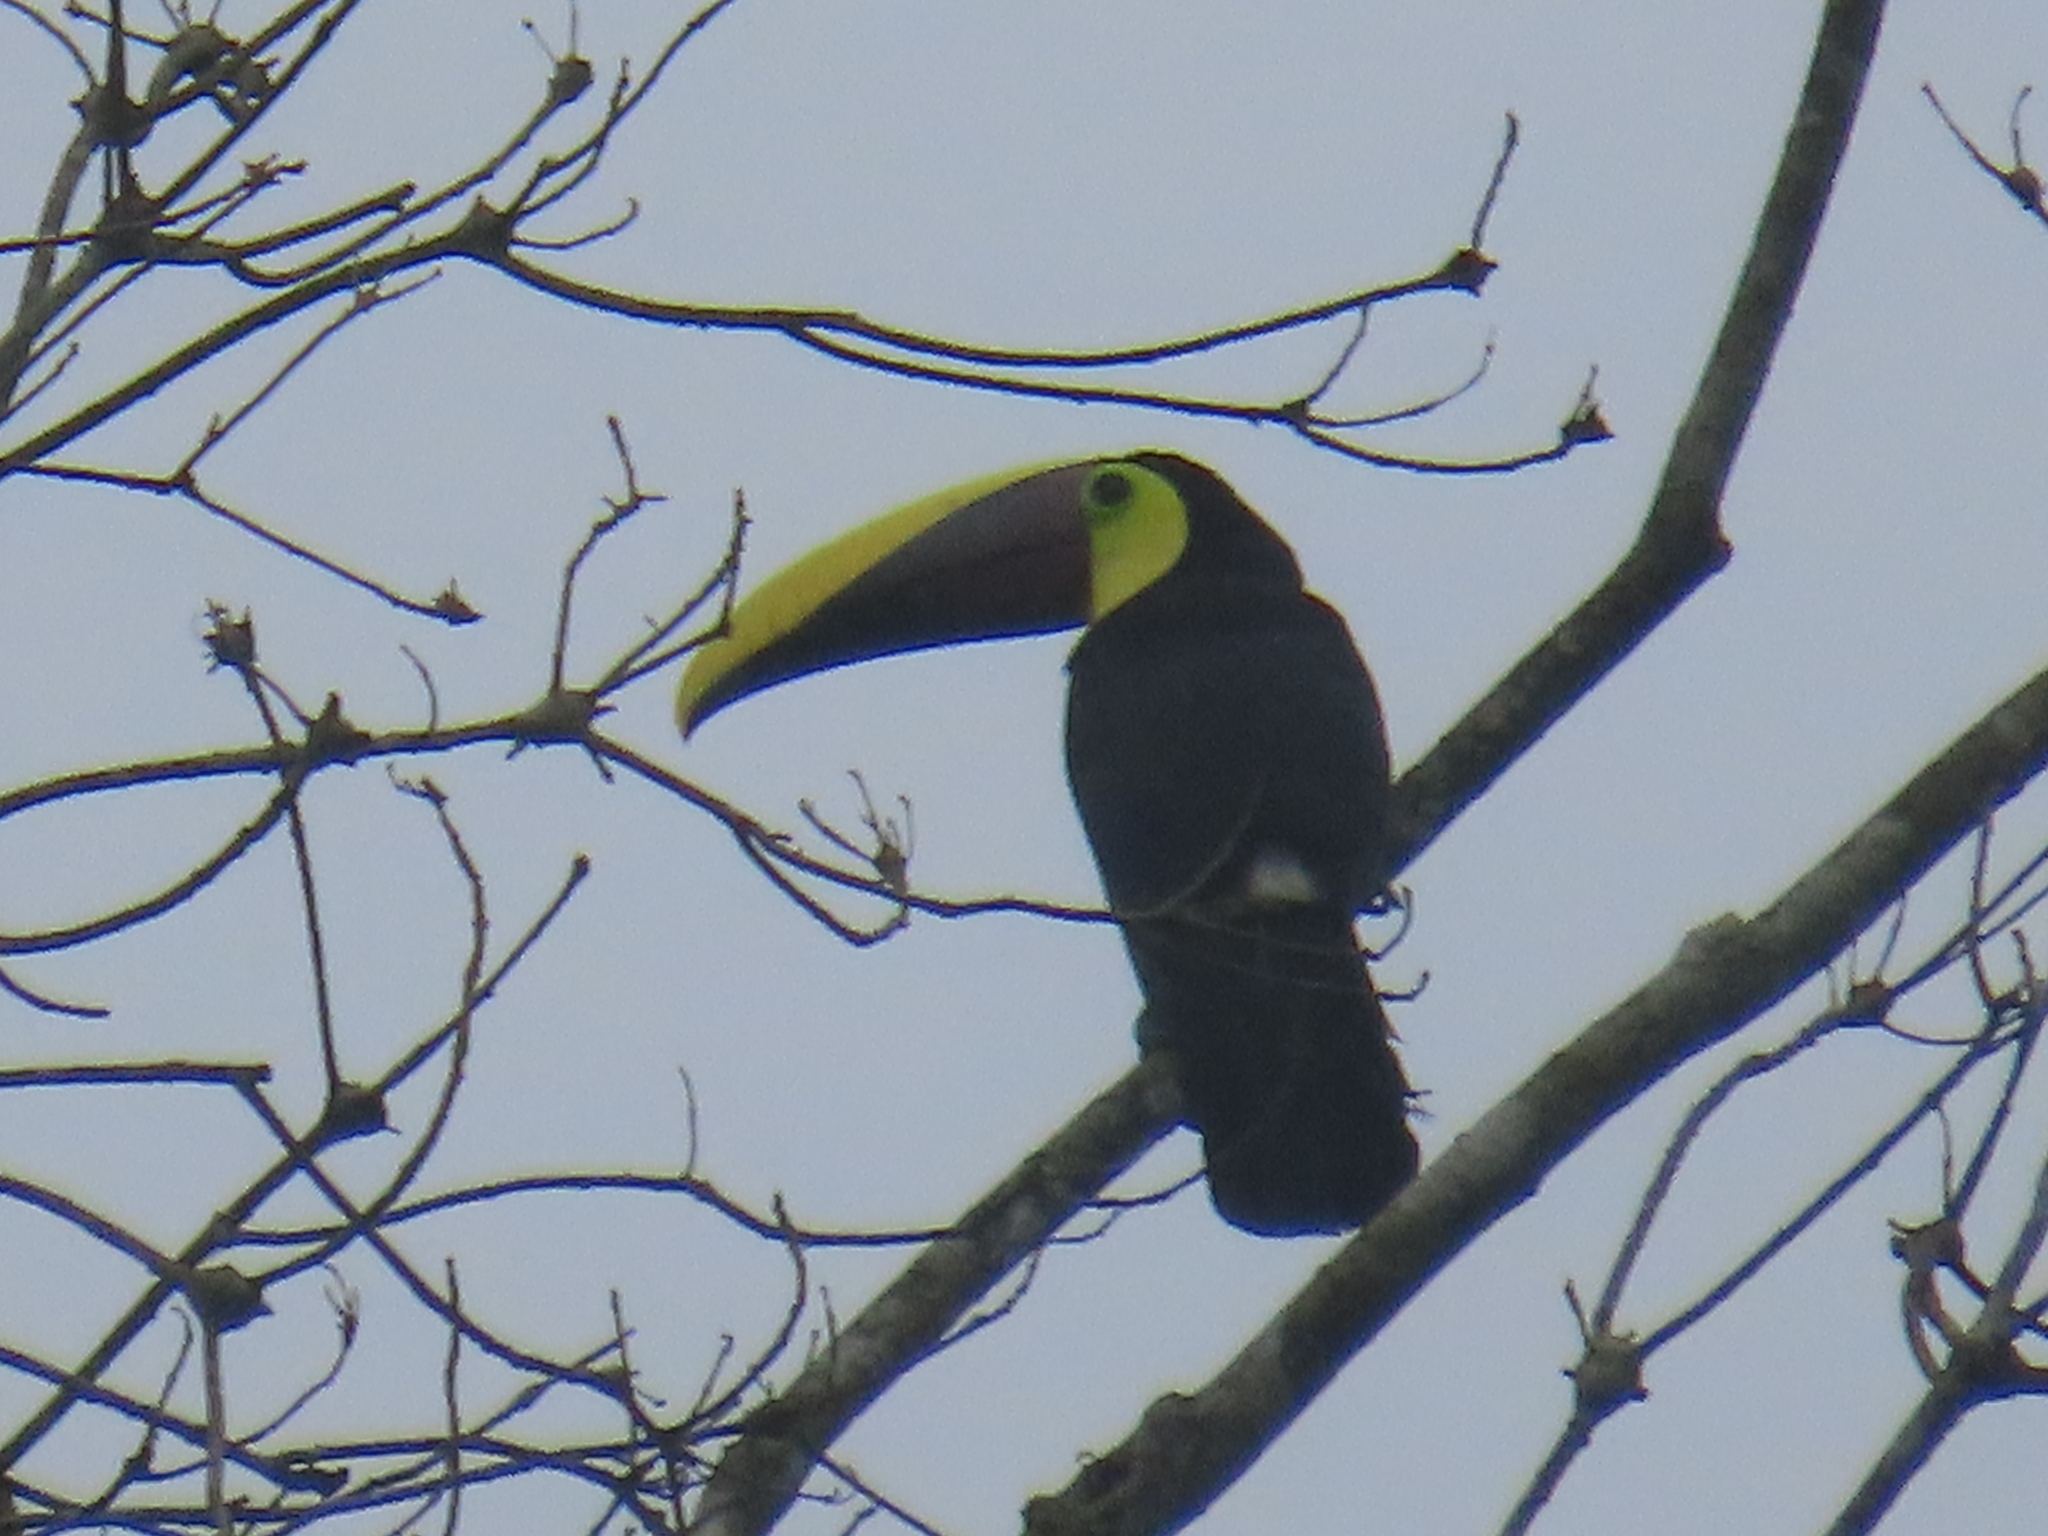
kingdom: Animalia
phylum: Chordata
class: Aves
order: Piciformes
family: Ramphastidae
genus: Ramphastos
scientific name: Ramphastos ambiguus
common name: Yellow-throated toucan
